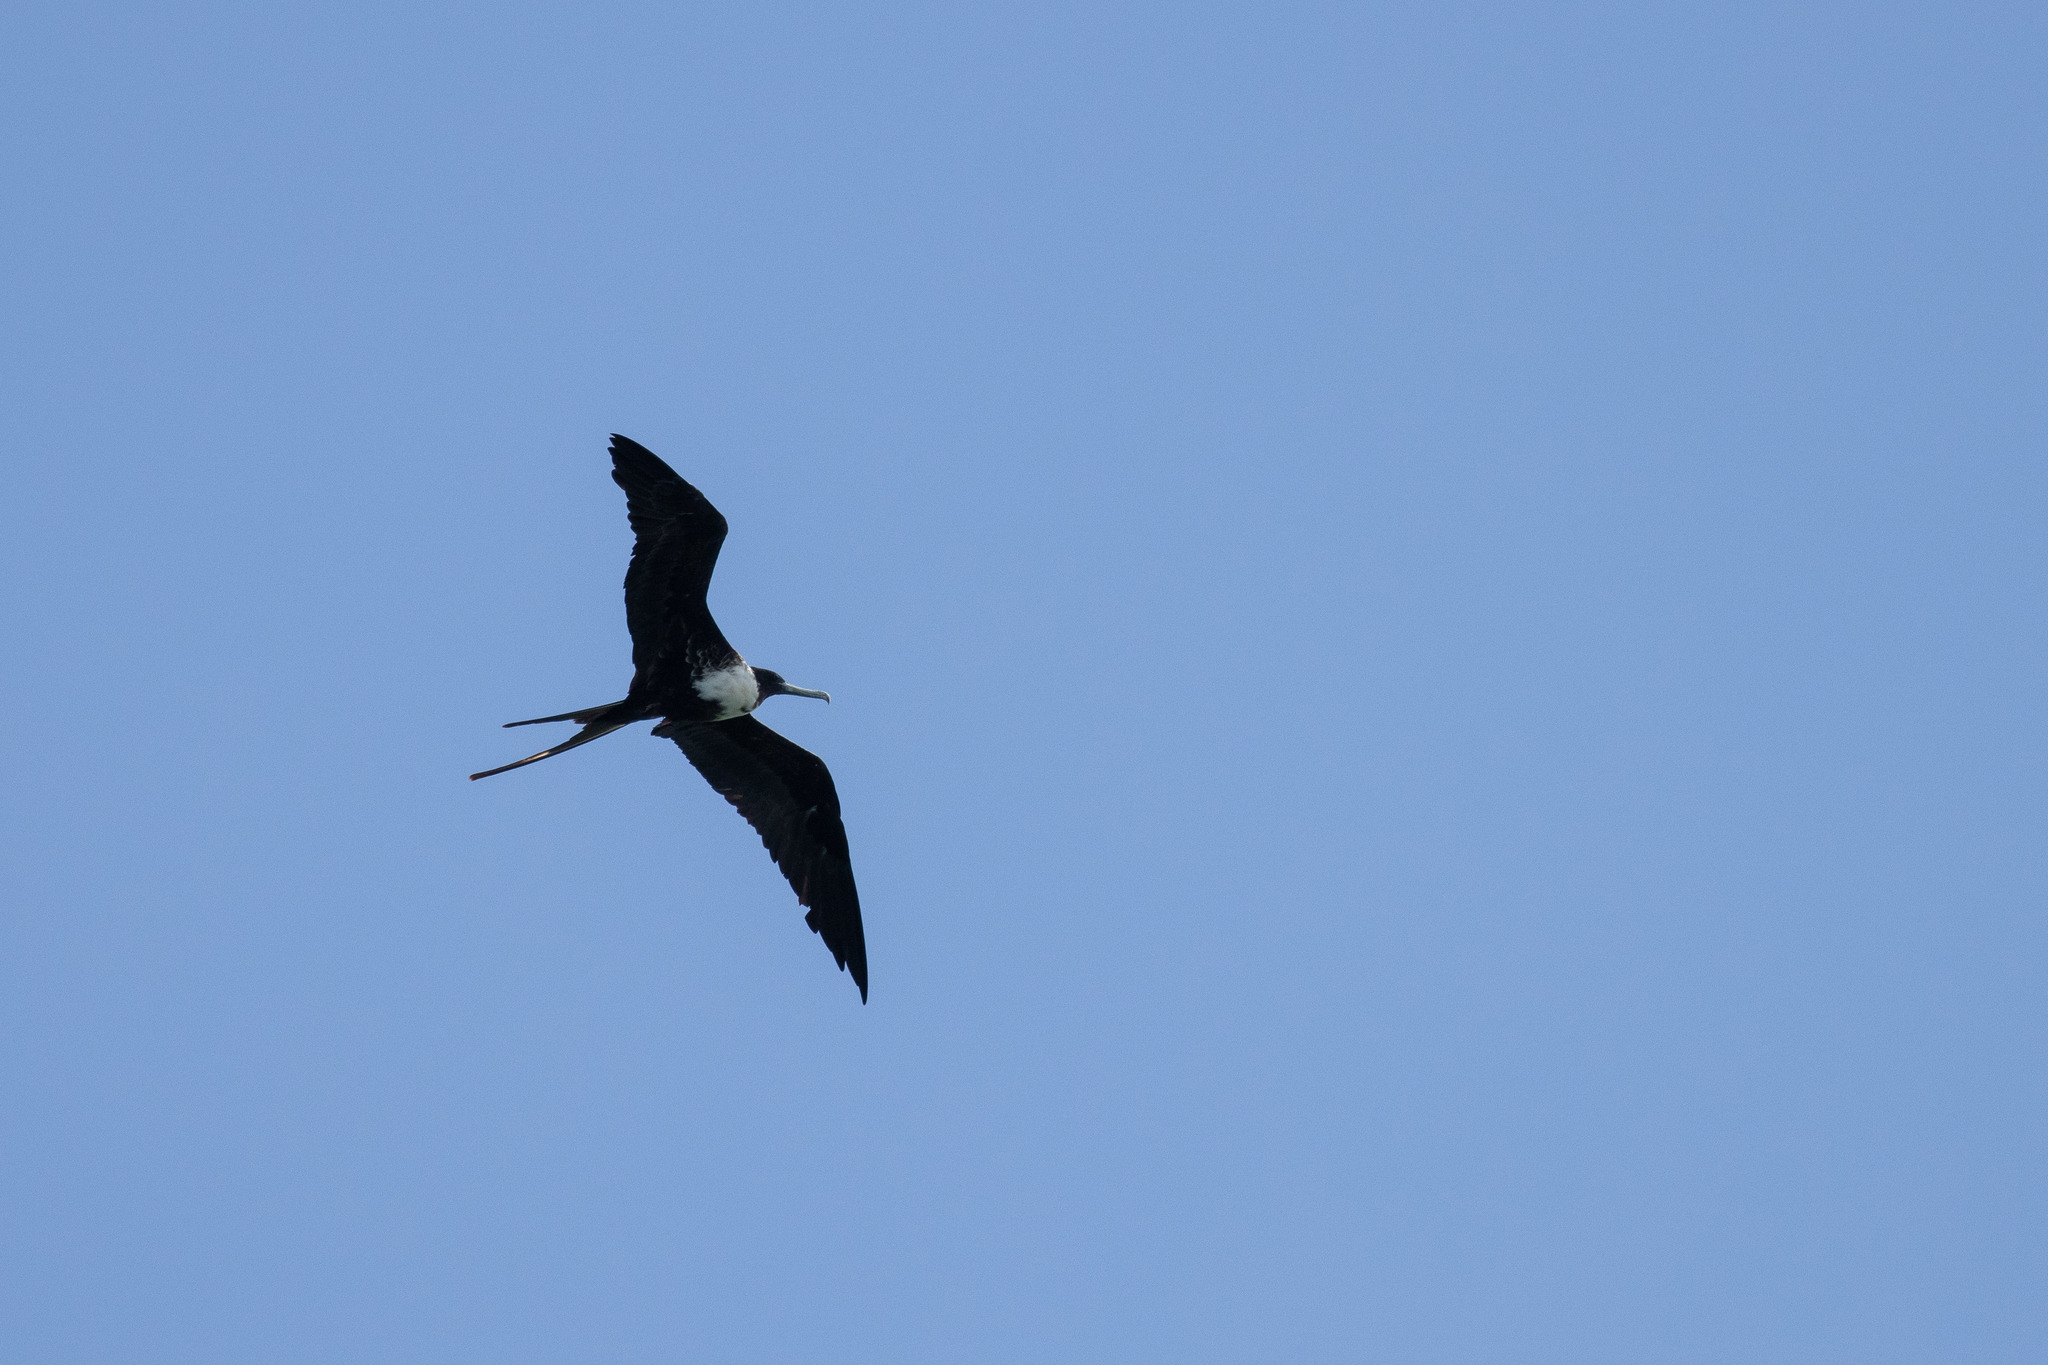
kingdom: Animalia
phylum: Chordata
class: Aves
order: Suliformes
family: Fregatidae
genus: Fregata
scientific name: Fregata magnificens
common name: Magnificent frigatebird
